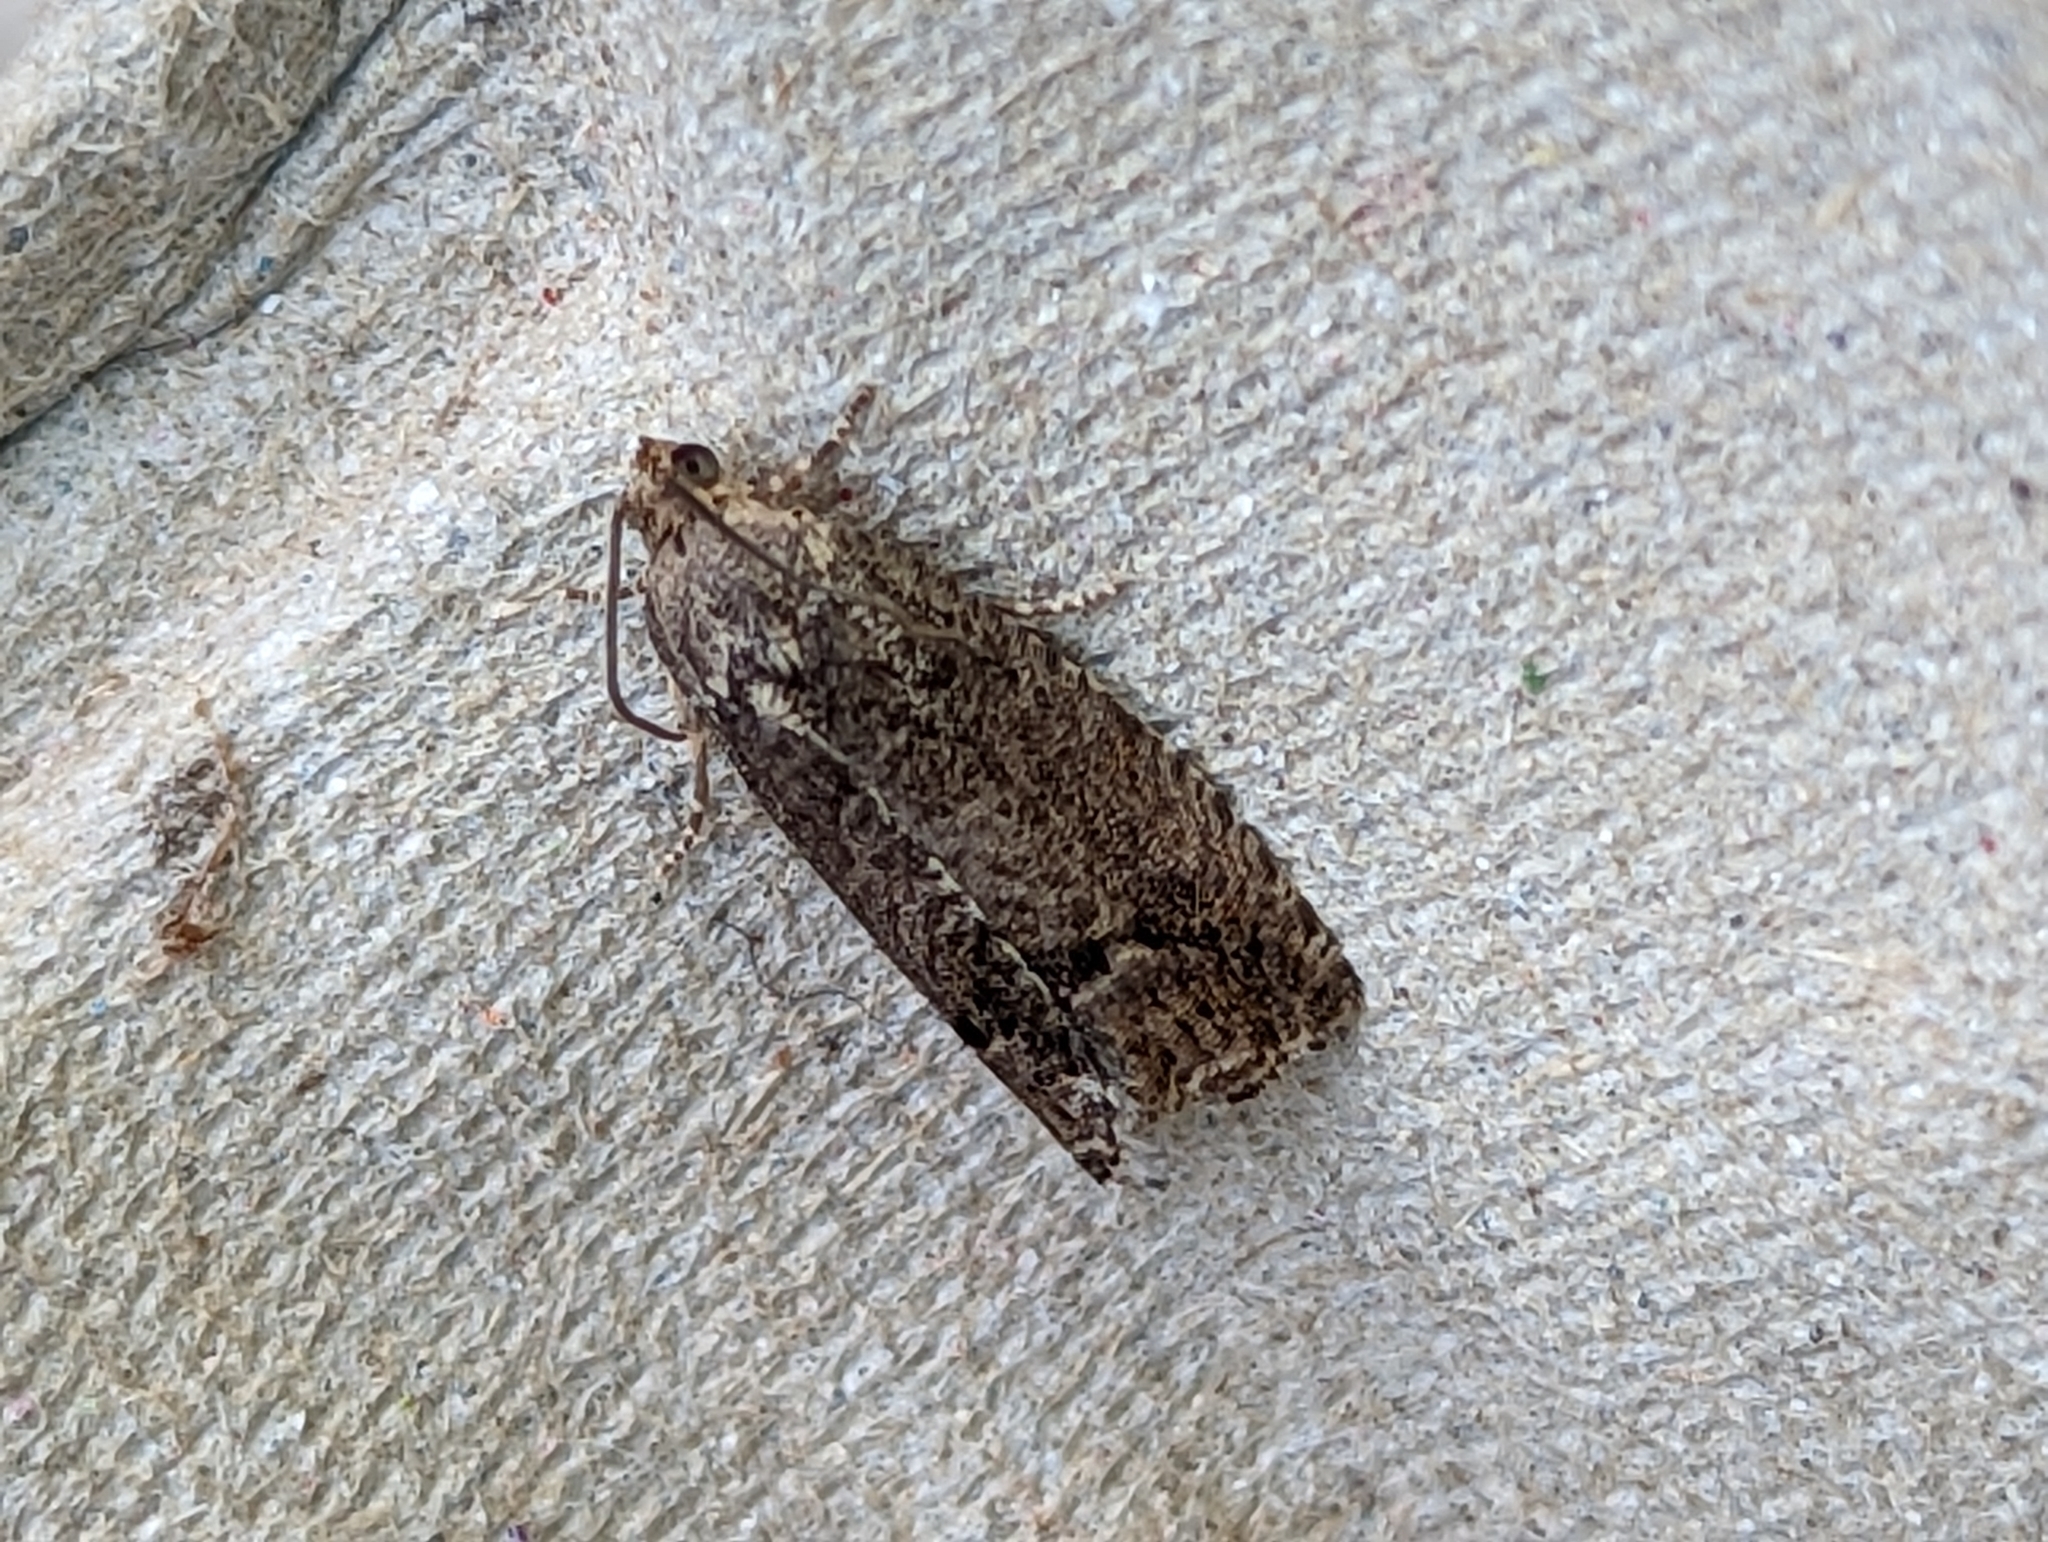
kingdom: Animalia
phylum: Arthropoda
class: Insecta
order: Lepidoptera
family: Tortricidae
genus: Cydia
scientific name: Cydia splendana
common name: De: kastanienwickler, eichenwickler es: oruga de la castaña fr: carpocapse des châtaignes it: cidia o tortrice tardiva delle castagne pt: bichado das castanhas gb: acorn moth, chestnut fruit tortrix
